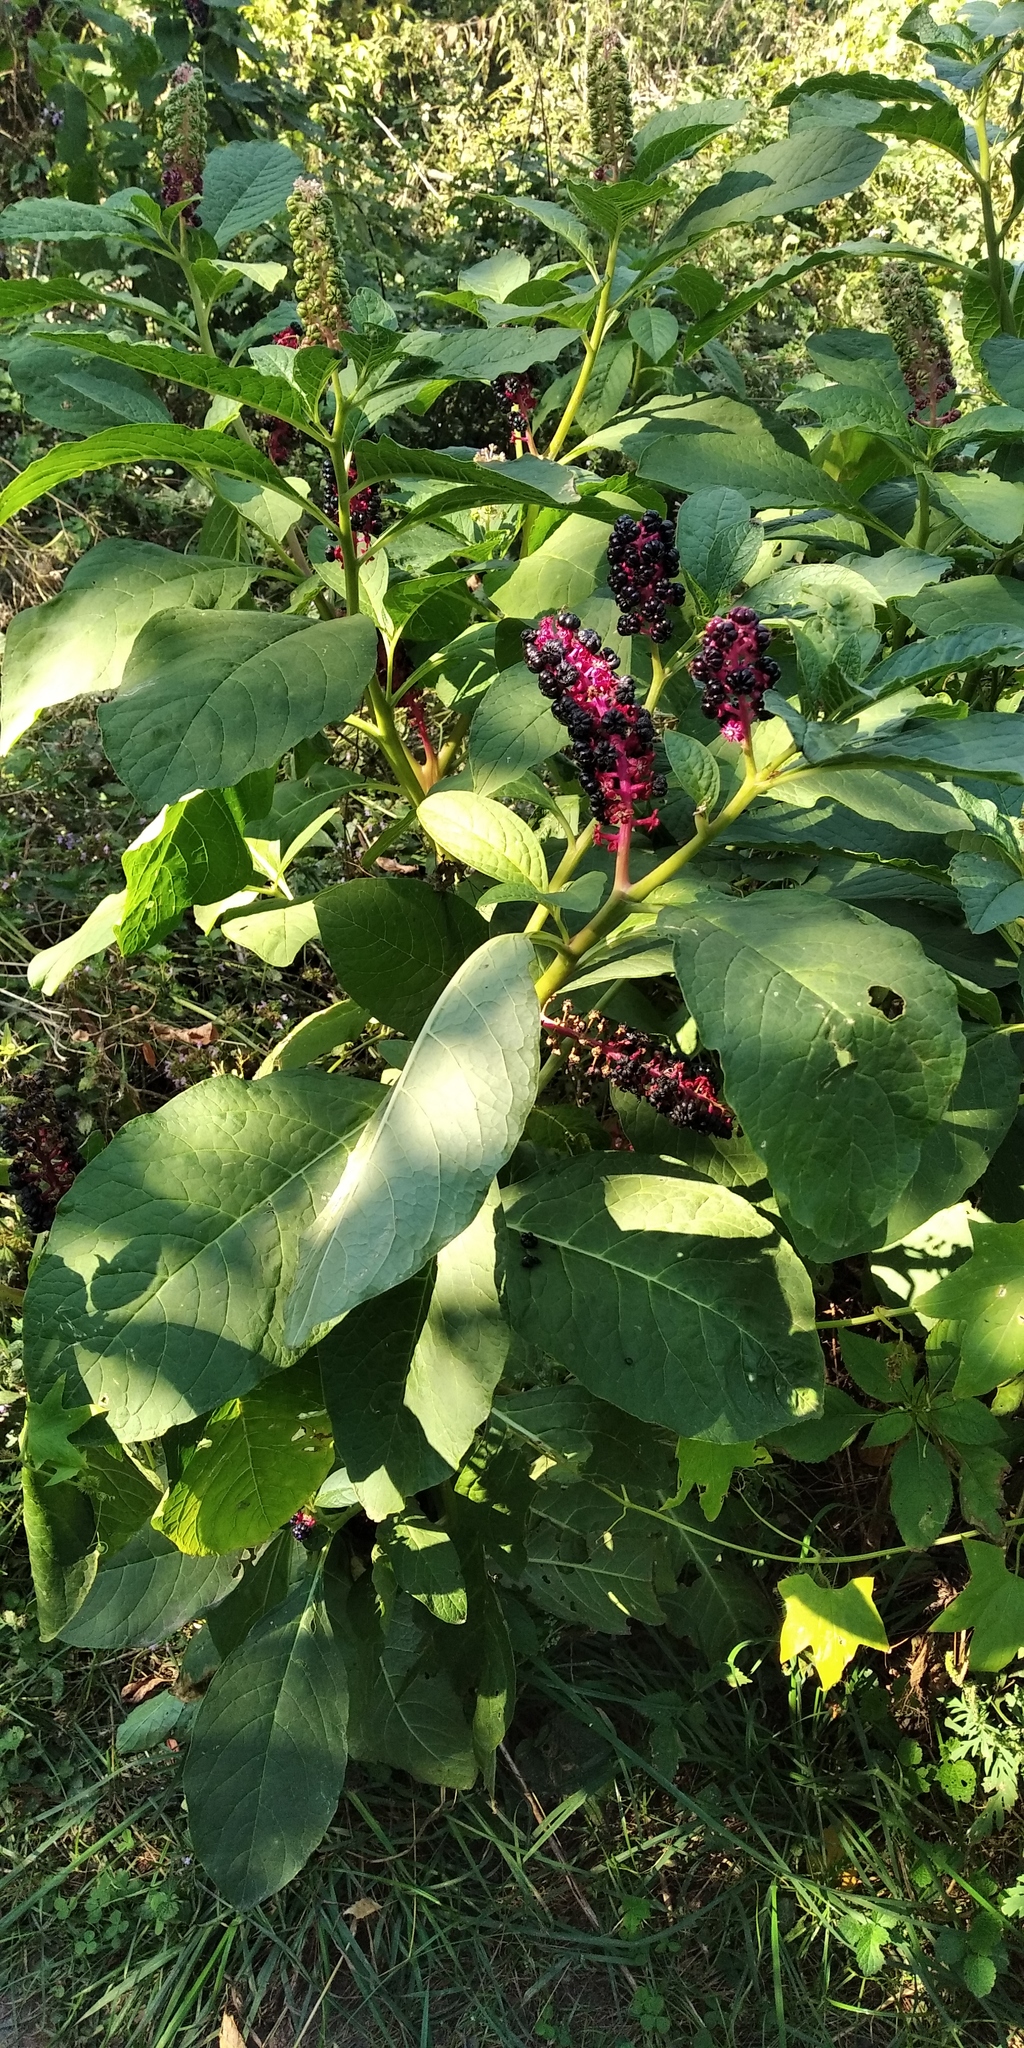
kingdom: Plantae
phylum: Tracheophyta
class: Magnoliopsida
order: Caryophyllales
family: Phytolaccaceae
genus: Phytolacca
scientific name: Phytolacca acinosa
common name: Indian pokeweed
